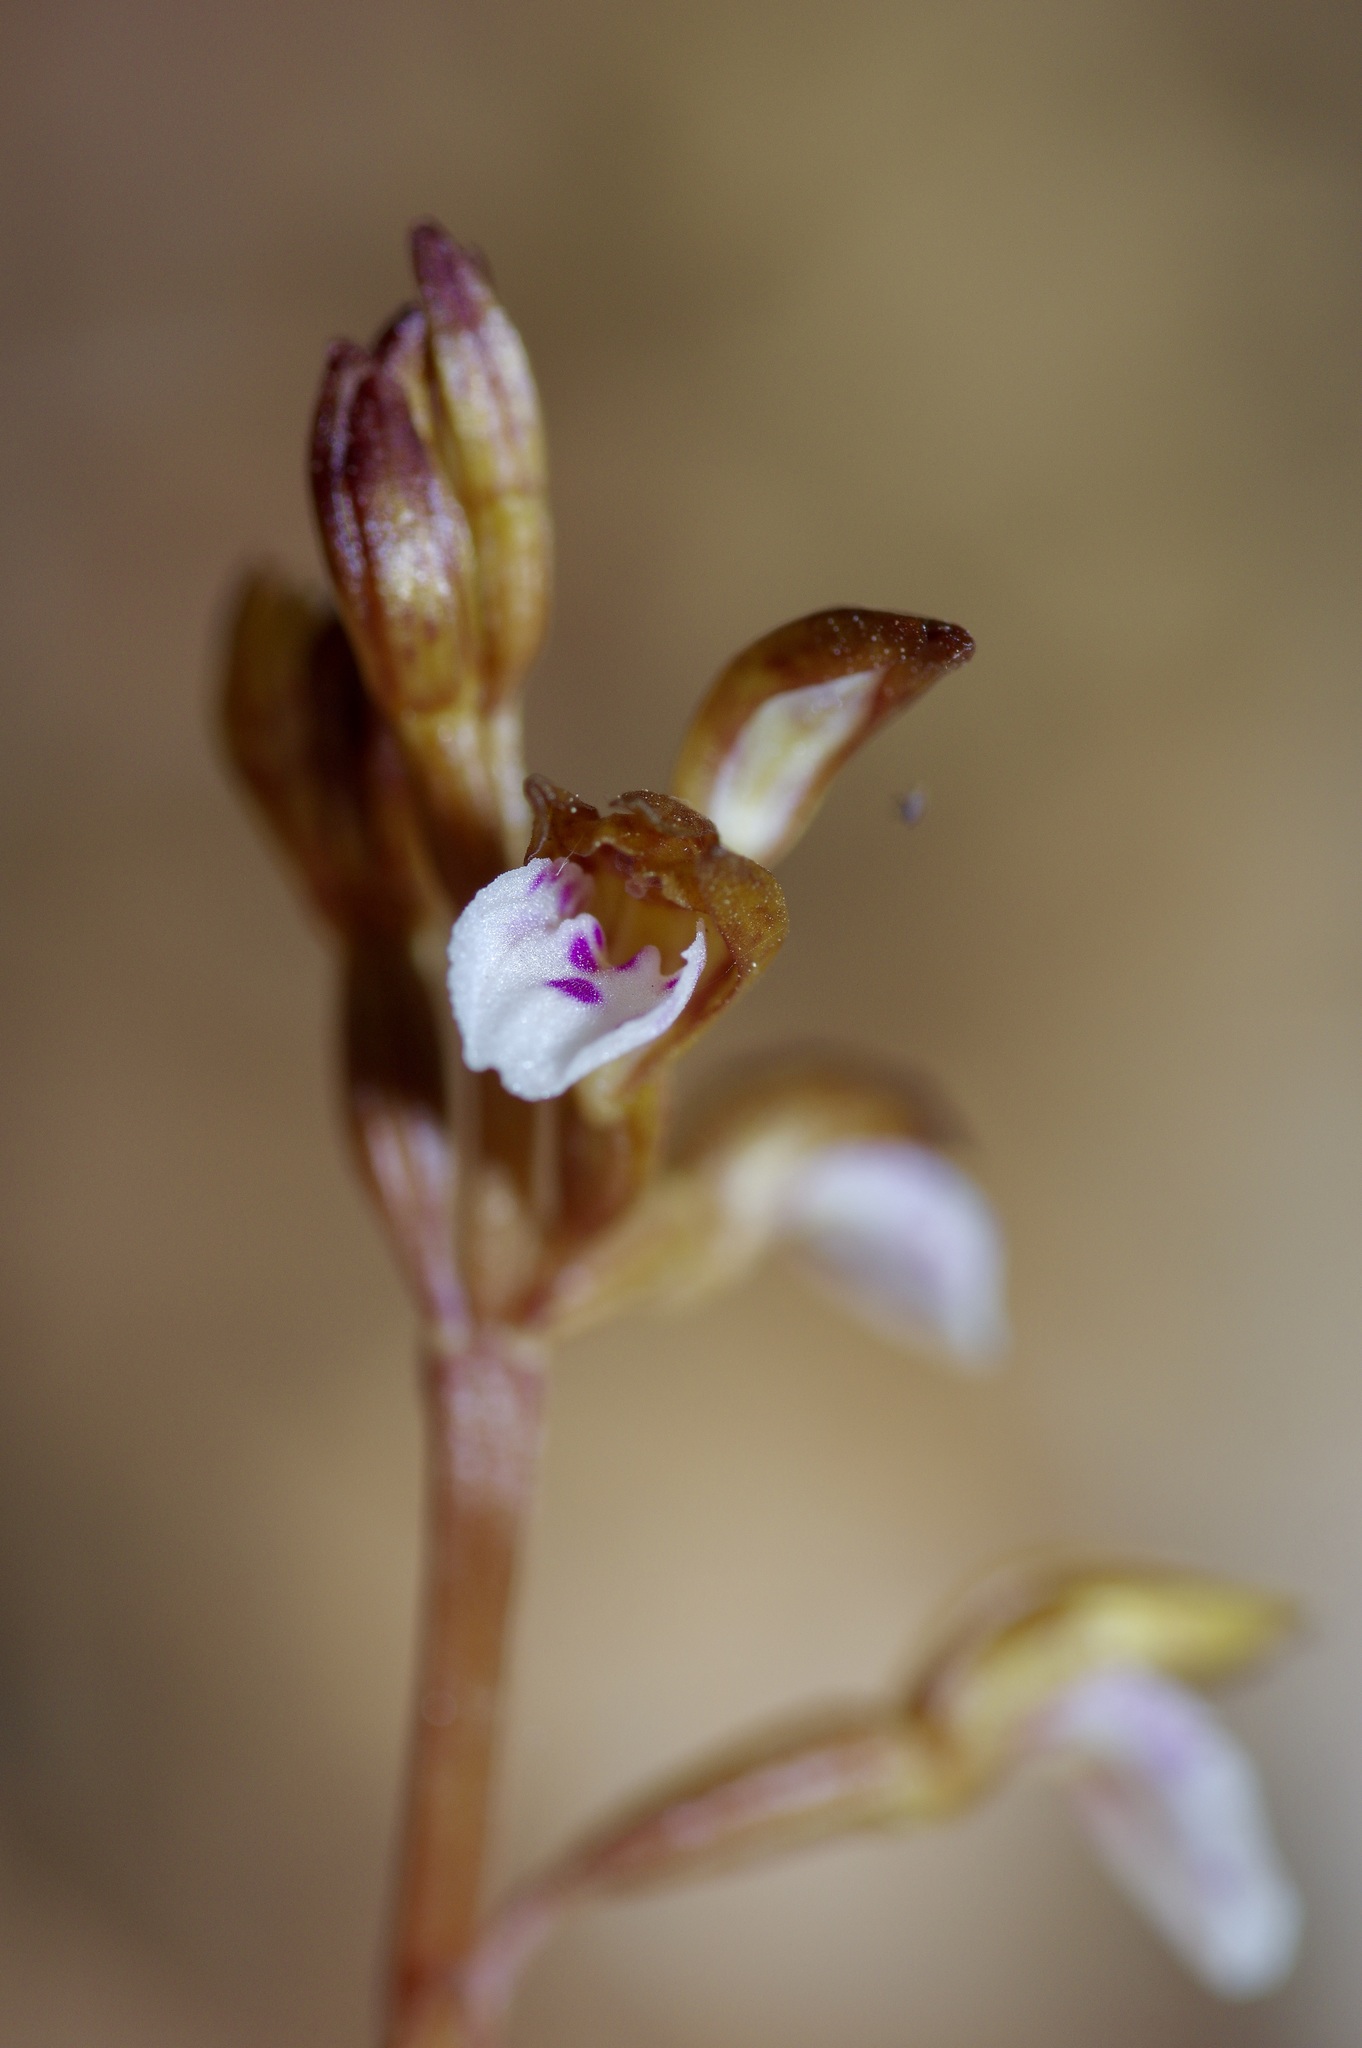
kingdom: Plantae
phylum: Tracheophyta
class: Liliopsida
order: Asparagales
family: Orchidaceae
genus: Corallorhiza
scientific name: Corallorhiza wisteriana
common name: Spring coralroot
